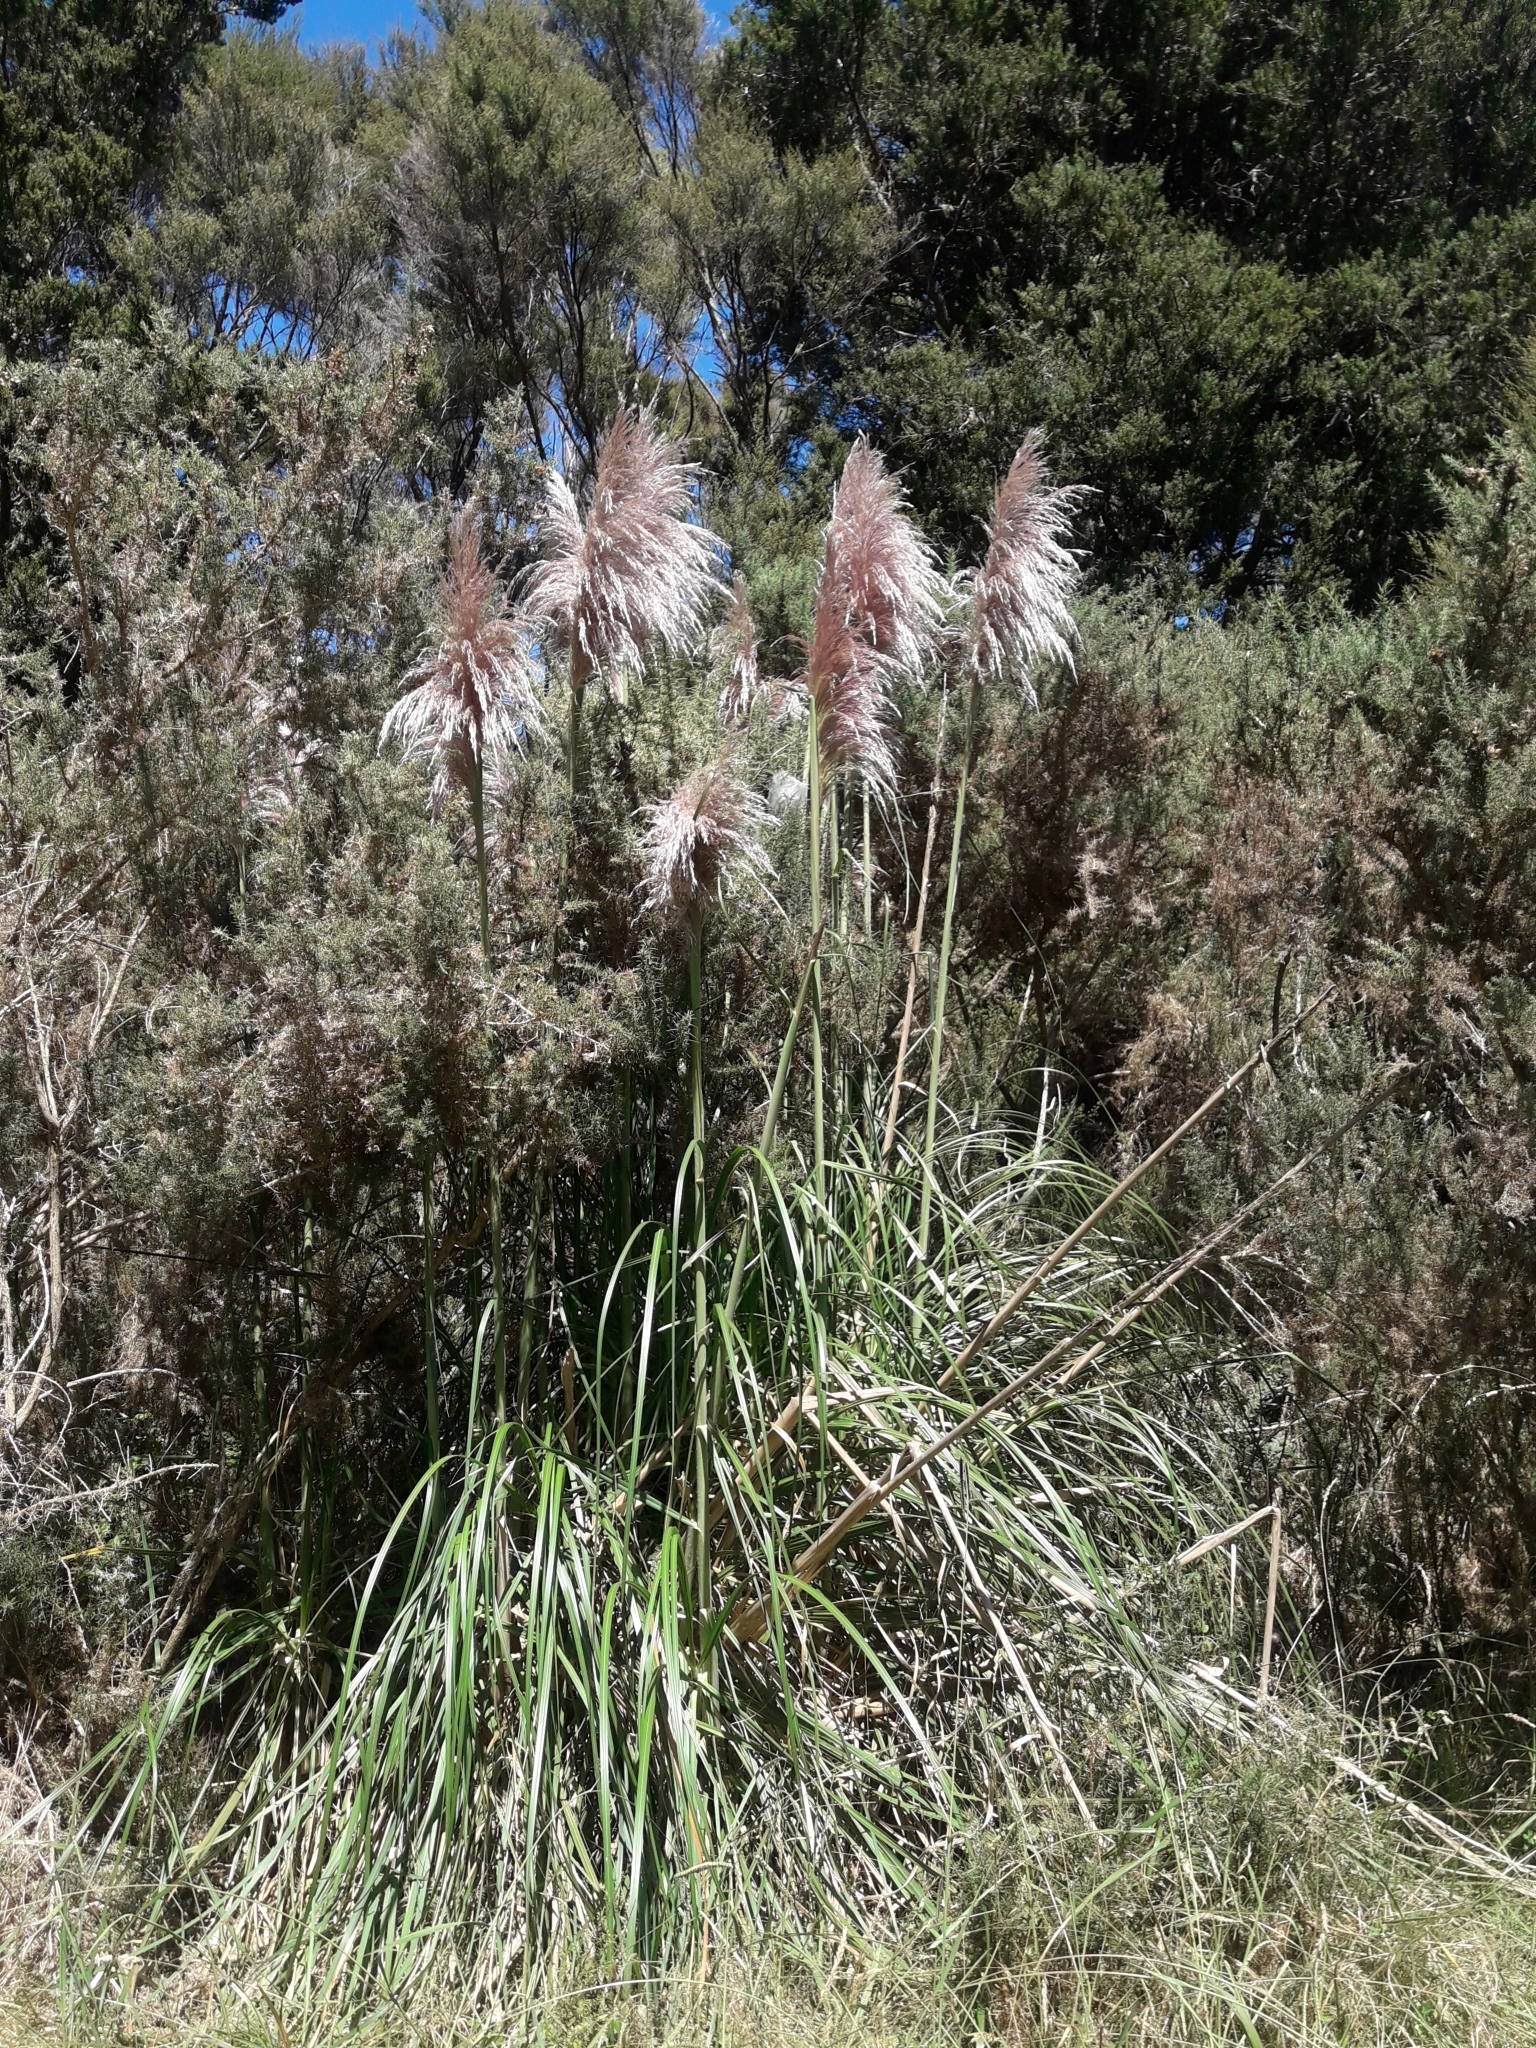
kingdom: Plantae
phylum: Tracheophyta
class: Liliopsida
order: Poales
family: Poaceae
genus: Cortaderia
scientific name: Cortaderia jubata
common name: Purple pampas grass
